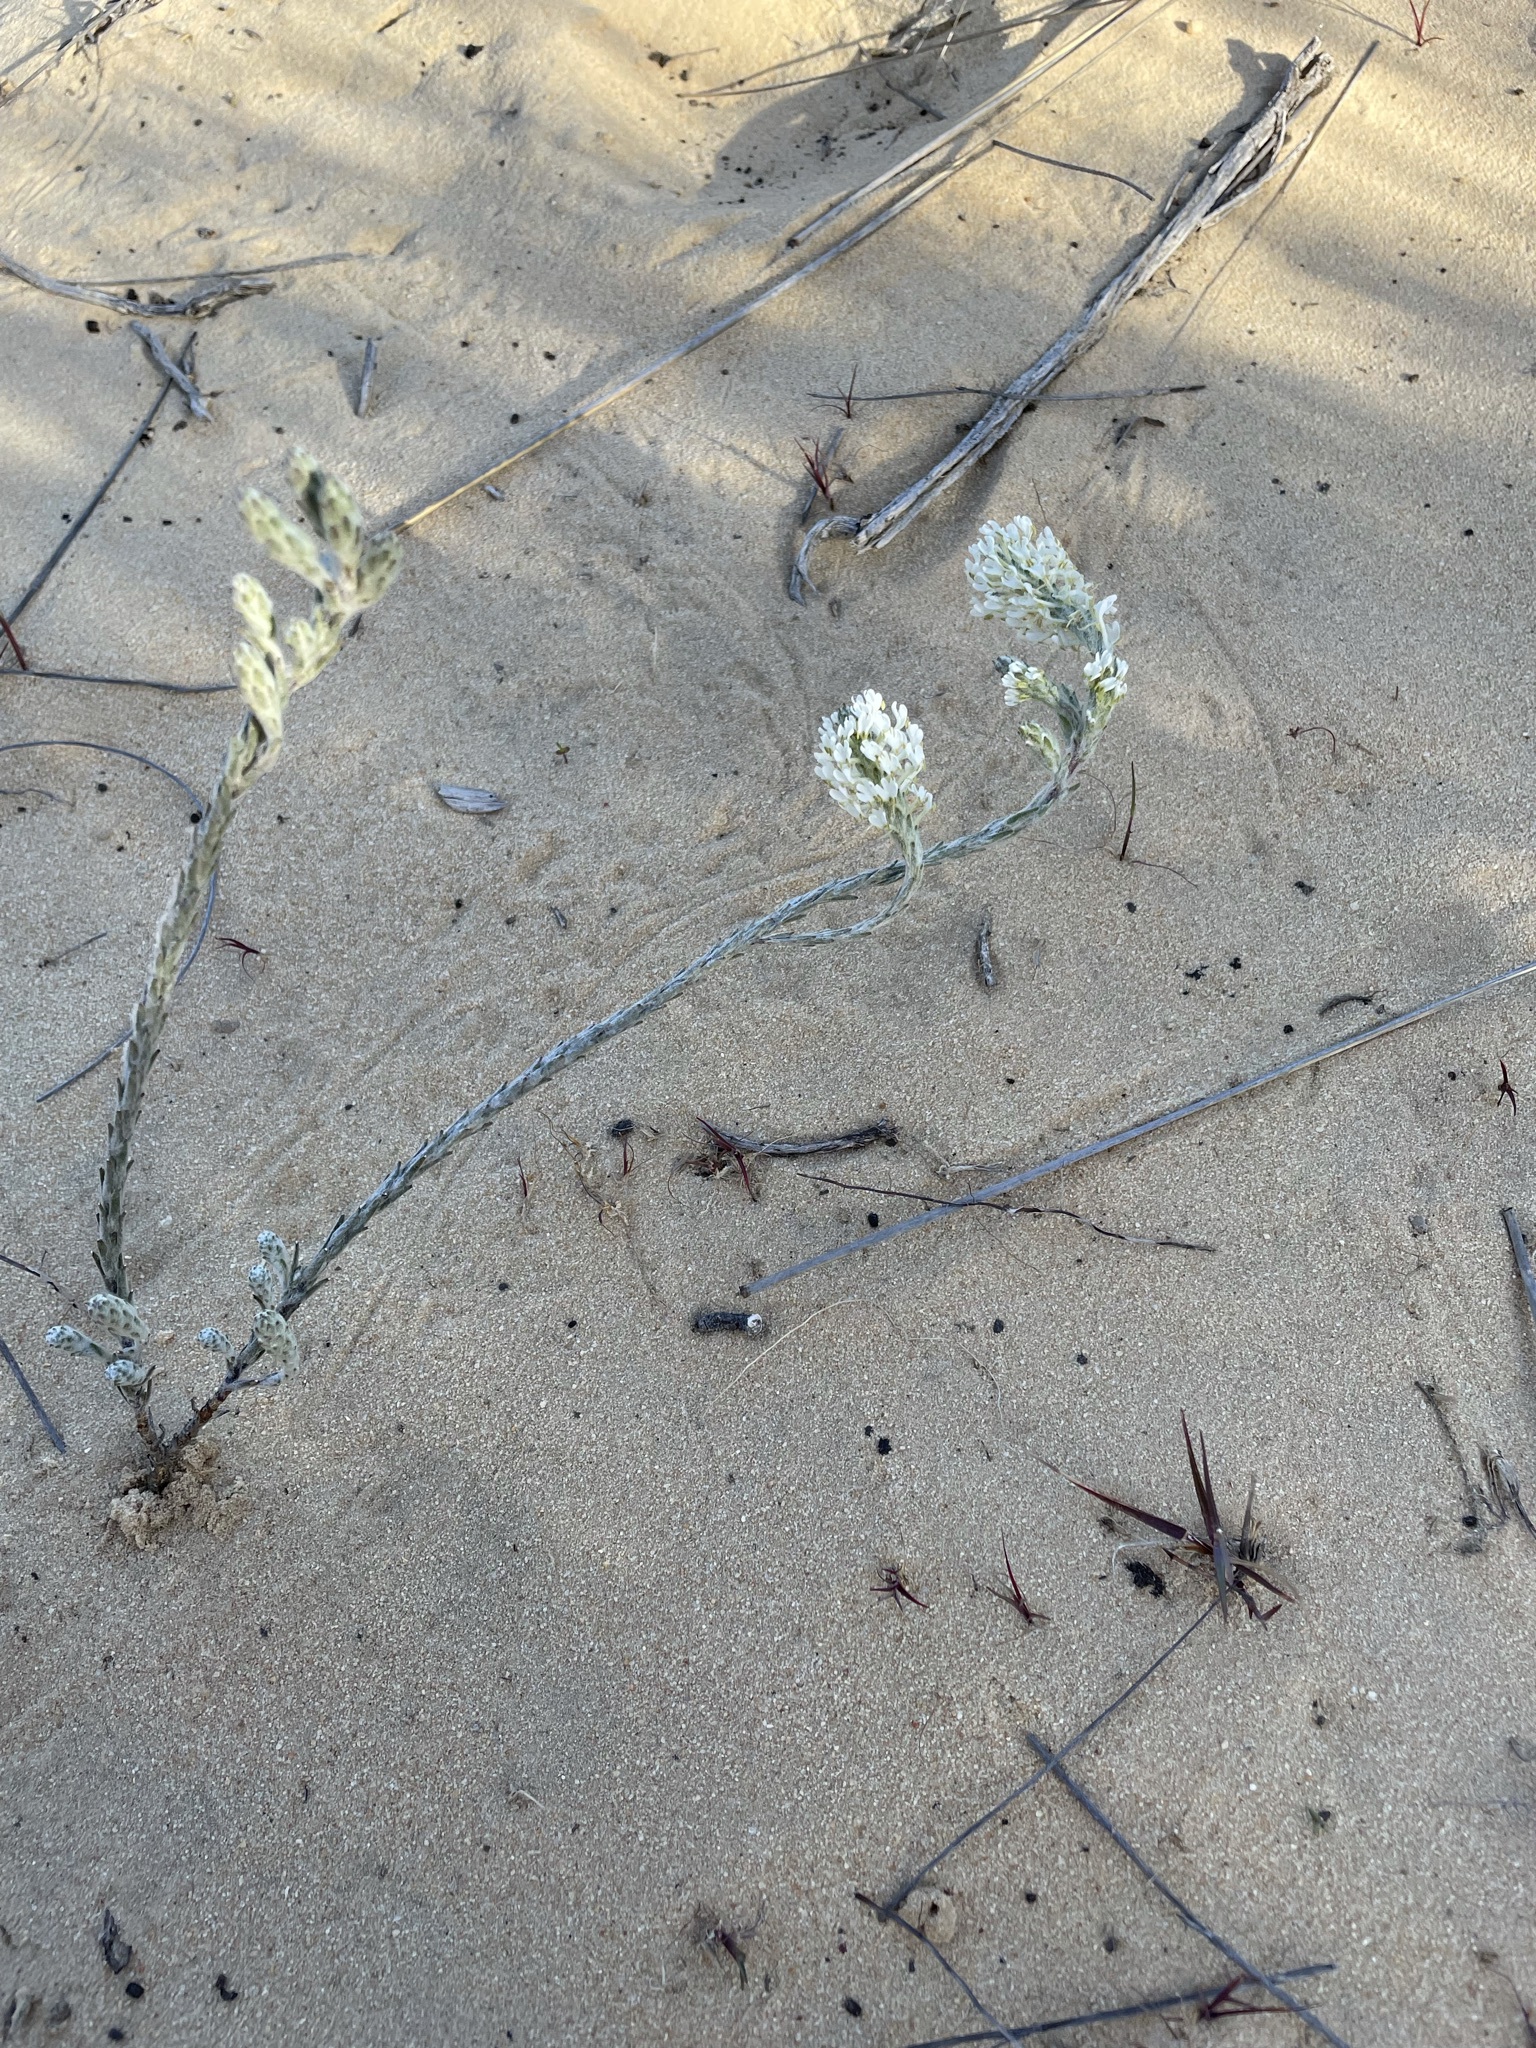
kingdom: Plantae
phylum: Tracheophyta
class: Magnoliopsida
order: Lamiales
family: Scrophulariaceae
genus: Dischisma
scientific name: Dischisma tomentosum
